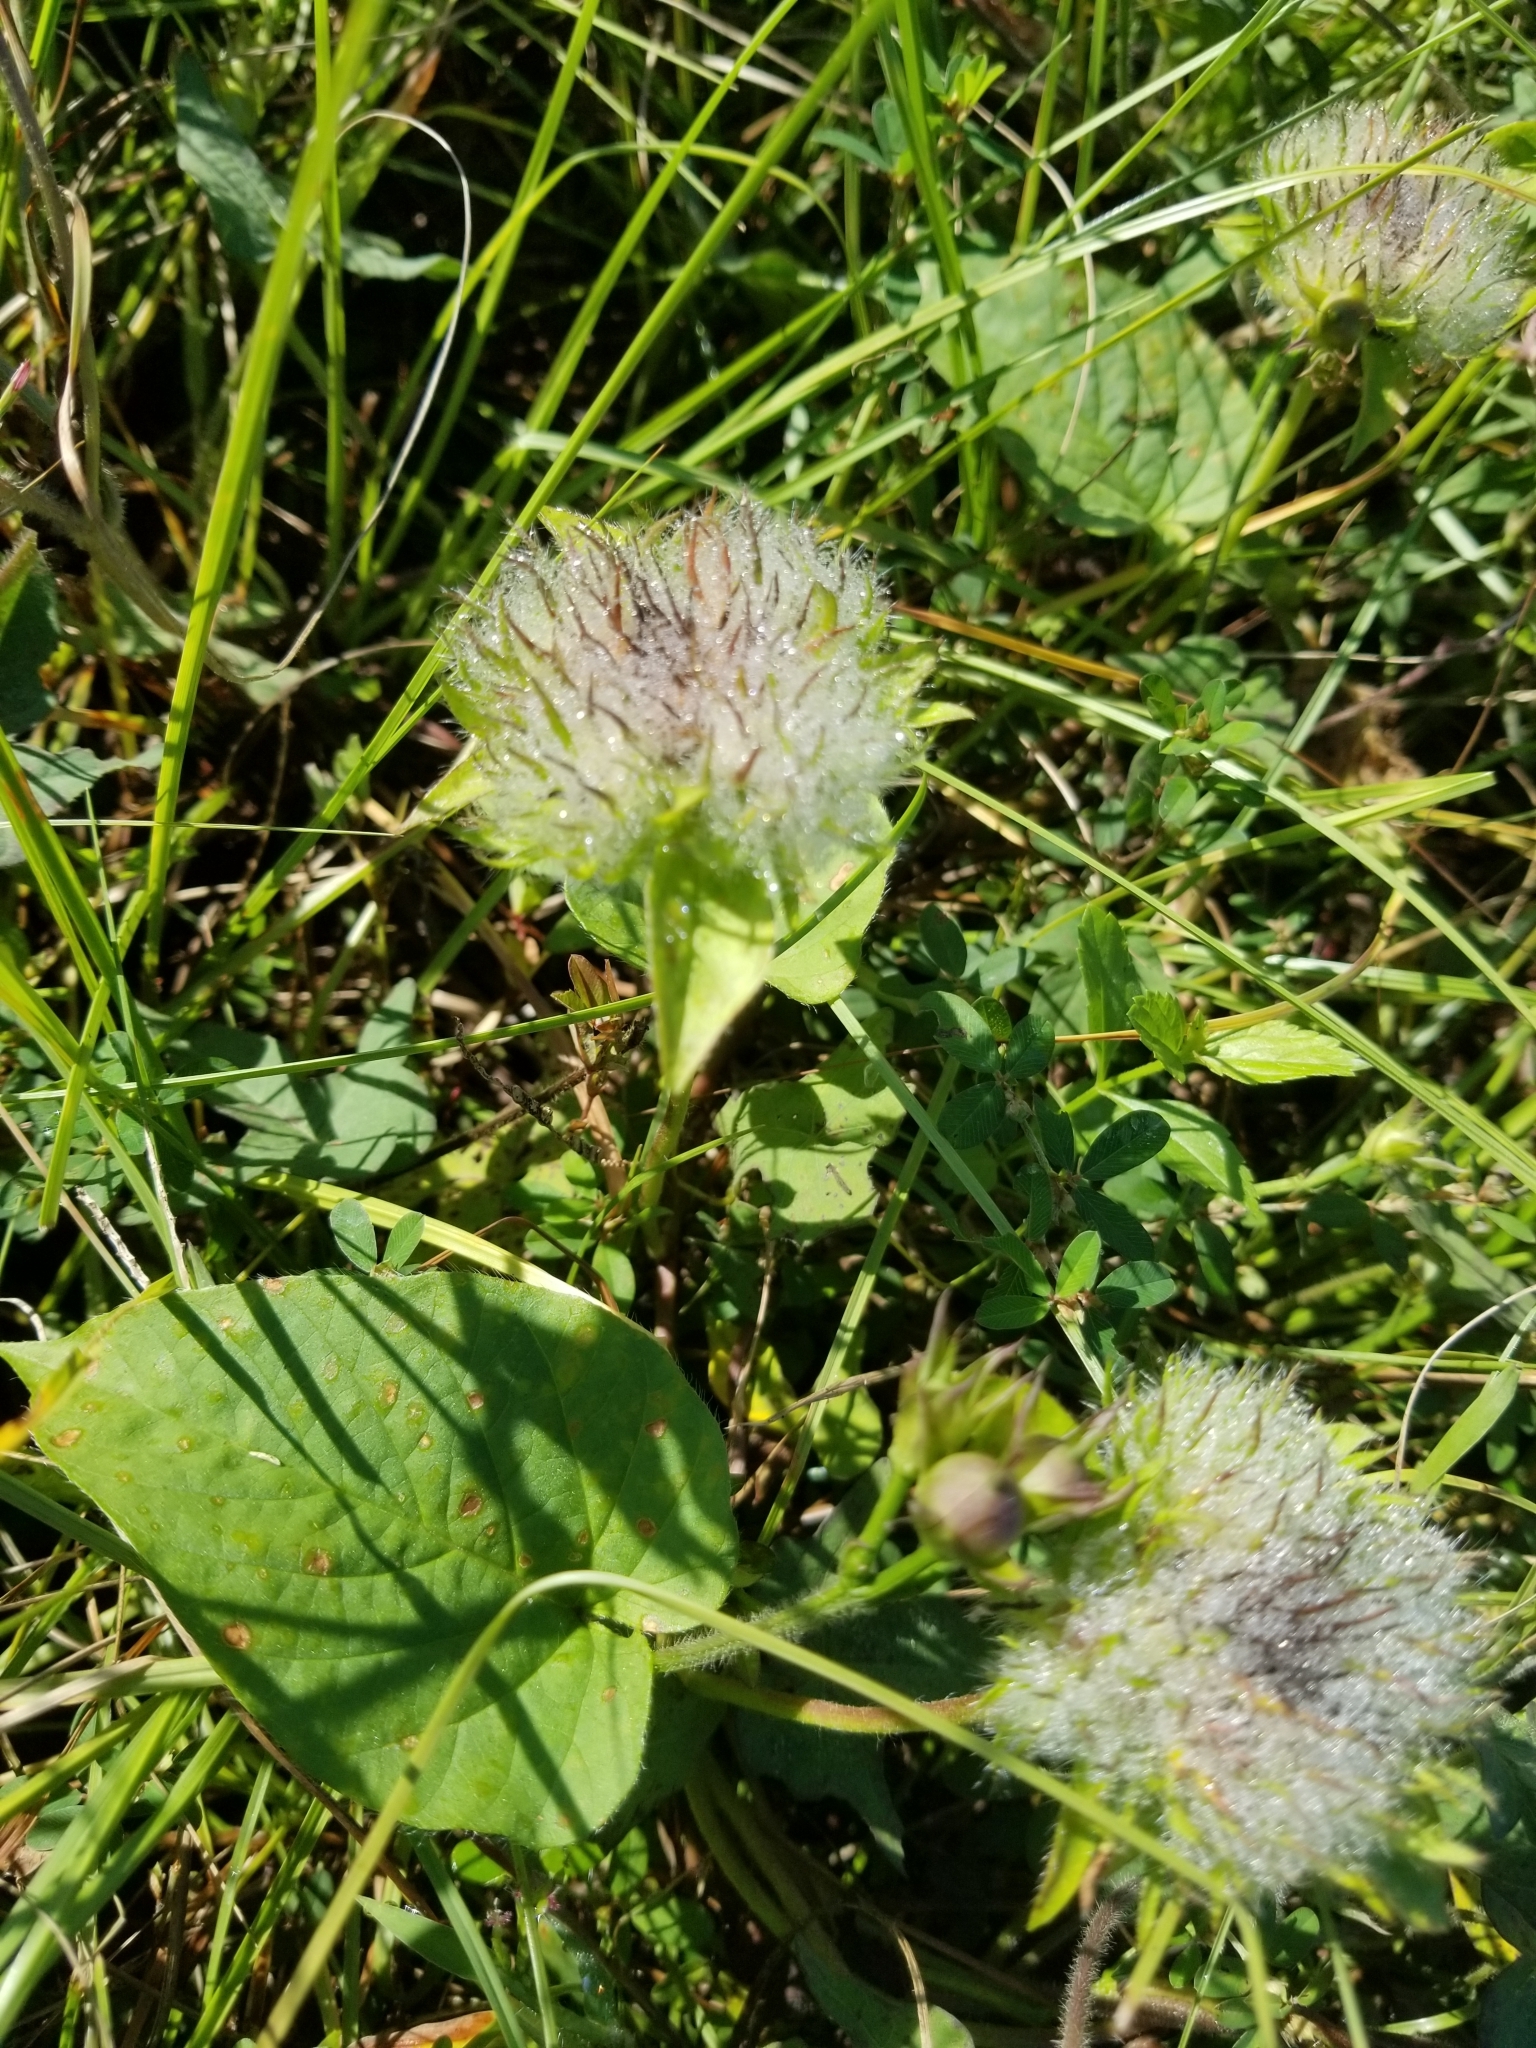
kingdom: Plantae
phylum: Tracheophyta
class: Magnoliopsida
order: Solanales
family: Convolvulaceae
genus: Jacquemontia
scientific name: Jacquemontia tamnifolia
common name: Hairy clustervine
